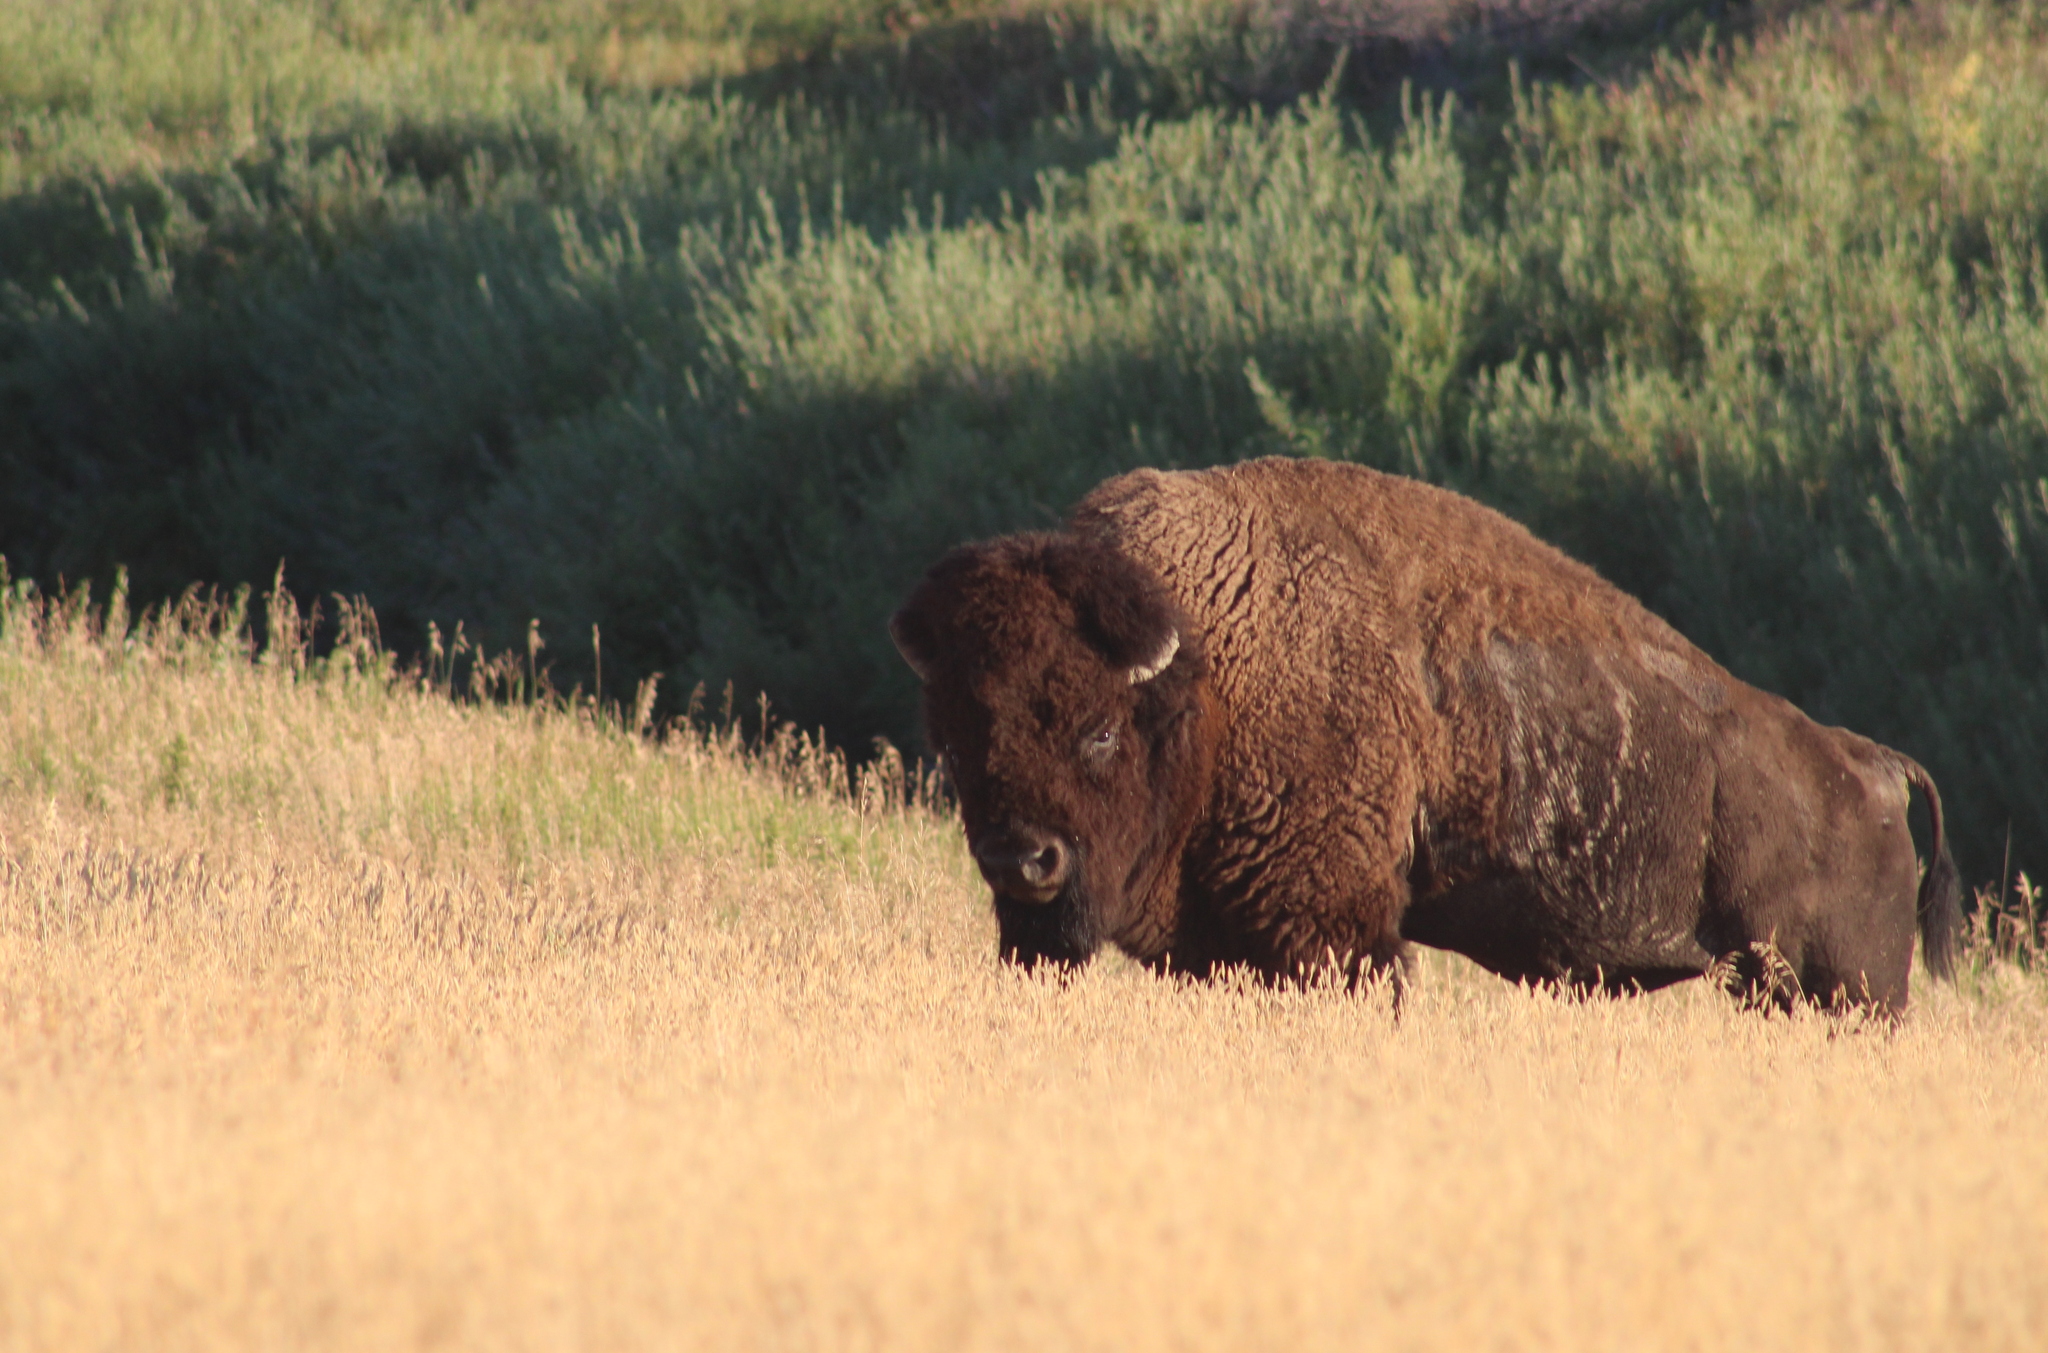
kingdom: Animalia
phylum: Chordata
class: Mammalia
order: Artiodactyla
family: Bovidae
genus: Bison
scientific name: Bison bison
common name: American bison
